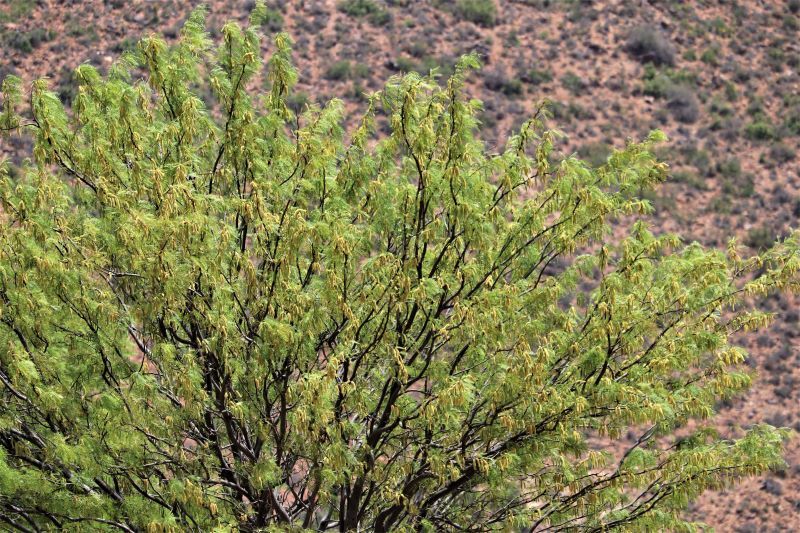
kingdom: Plantae
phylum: Tracheophyta
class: Magnoliopsida
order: Fabales
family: Fabaceae
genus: Prosopis
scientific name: Prosopis glandulosa
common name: Honey mesquite
